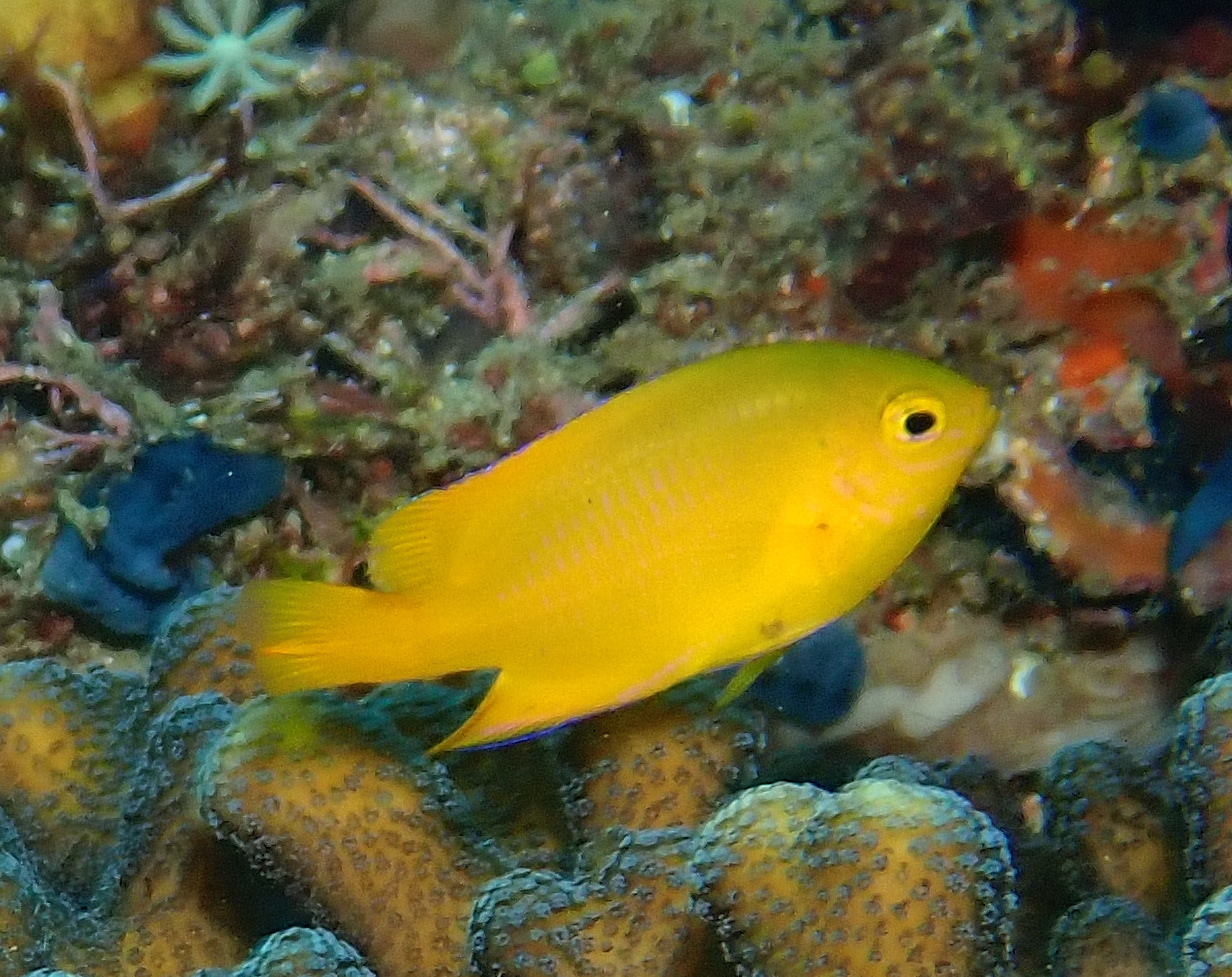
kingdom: Animalia
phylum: Chordata
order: Perciformes
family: Pomacentridae
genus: Pomacentrus
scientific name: Pomacentrus moluccensis
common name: Lemon damsel
